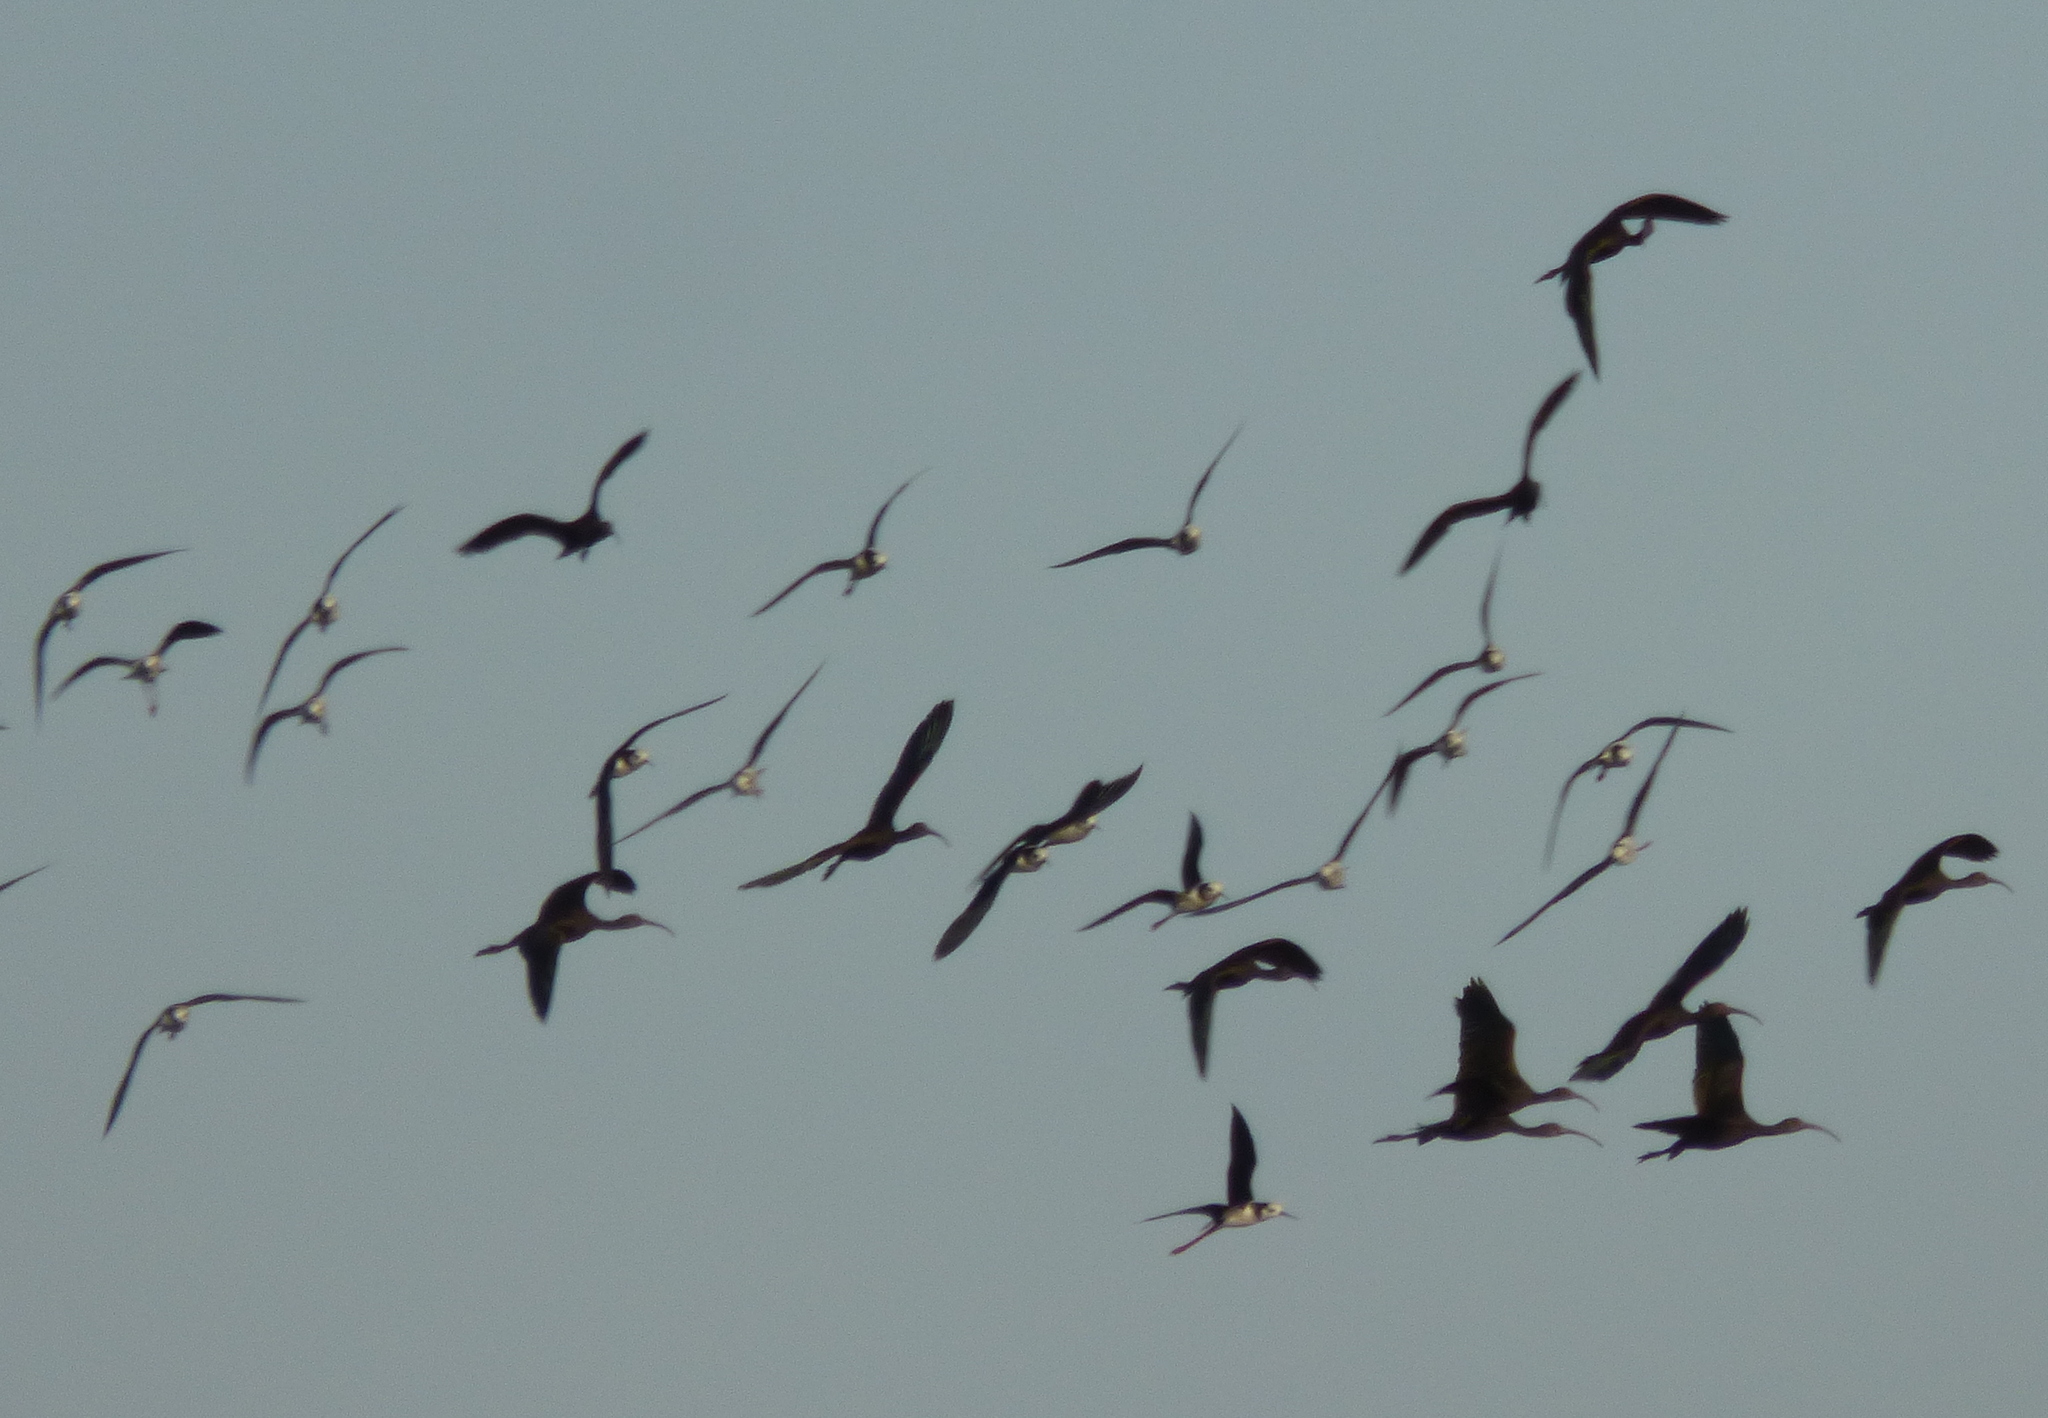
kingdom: Animalia
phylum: Chordata
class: Aves
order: Charadriiformes
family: Recurvirostridae
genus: Himantopus
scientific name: Himantopus mexicanus
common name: Black-necked stilt
